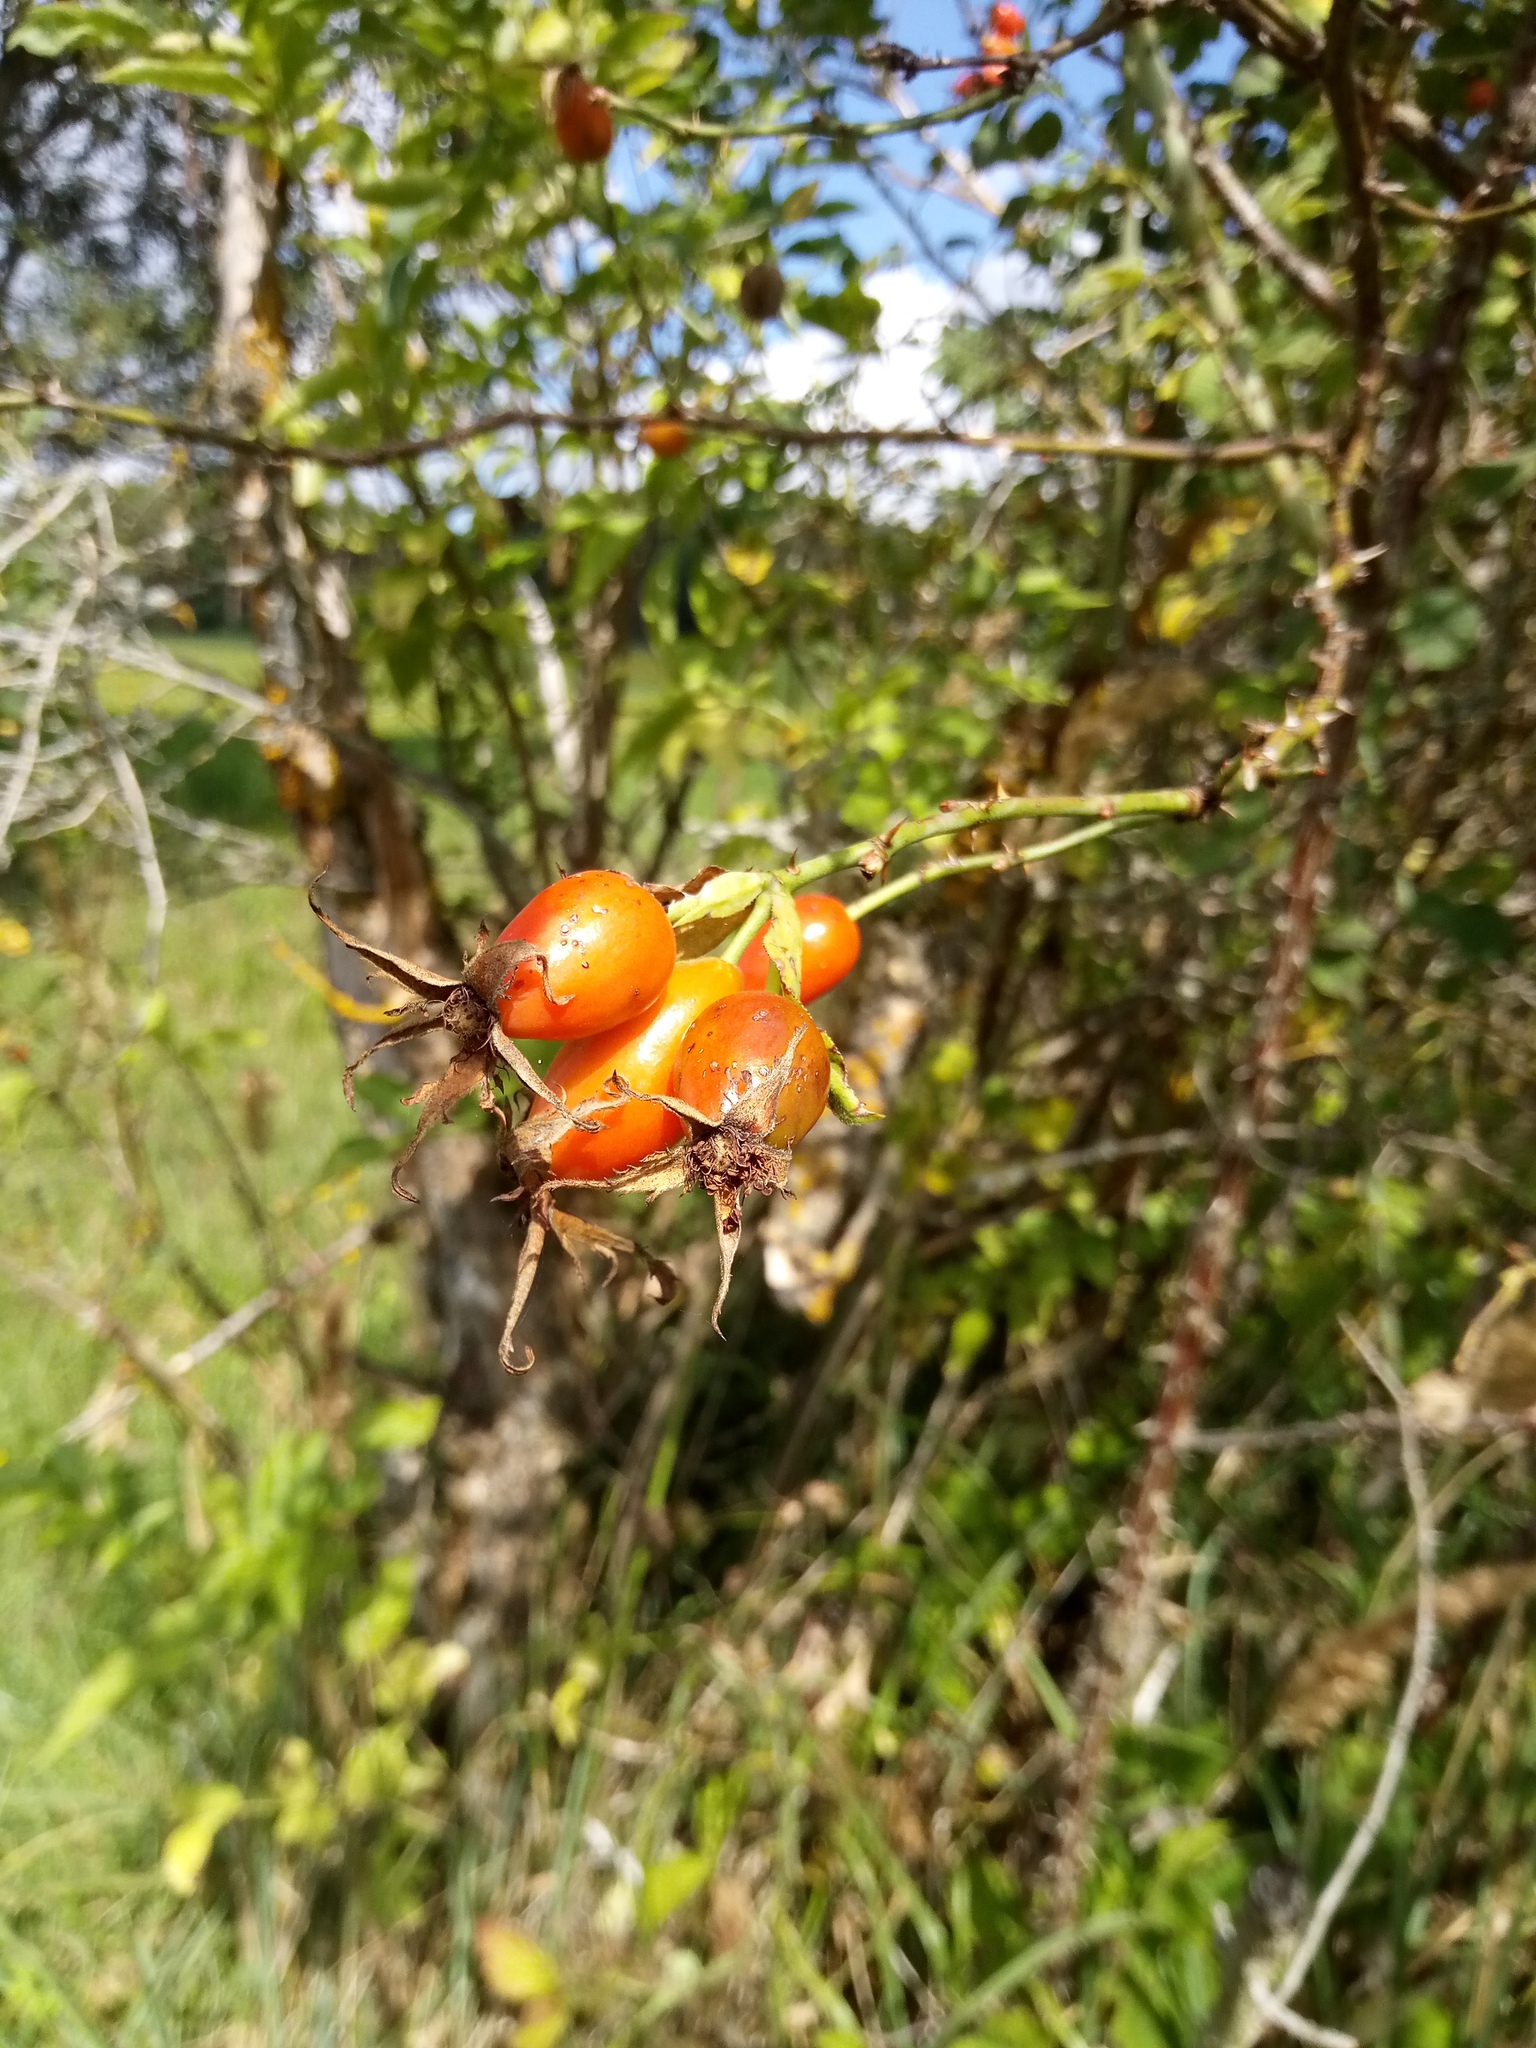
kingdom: Plantae
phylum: Tracheophyta
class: Magnoliopsida
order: Rosales
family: Rosaceae
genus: Rosa
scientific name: Rosa subcollina
